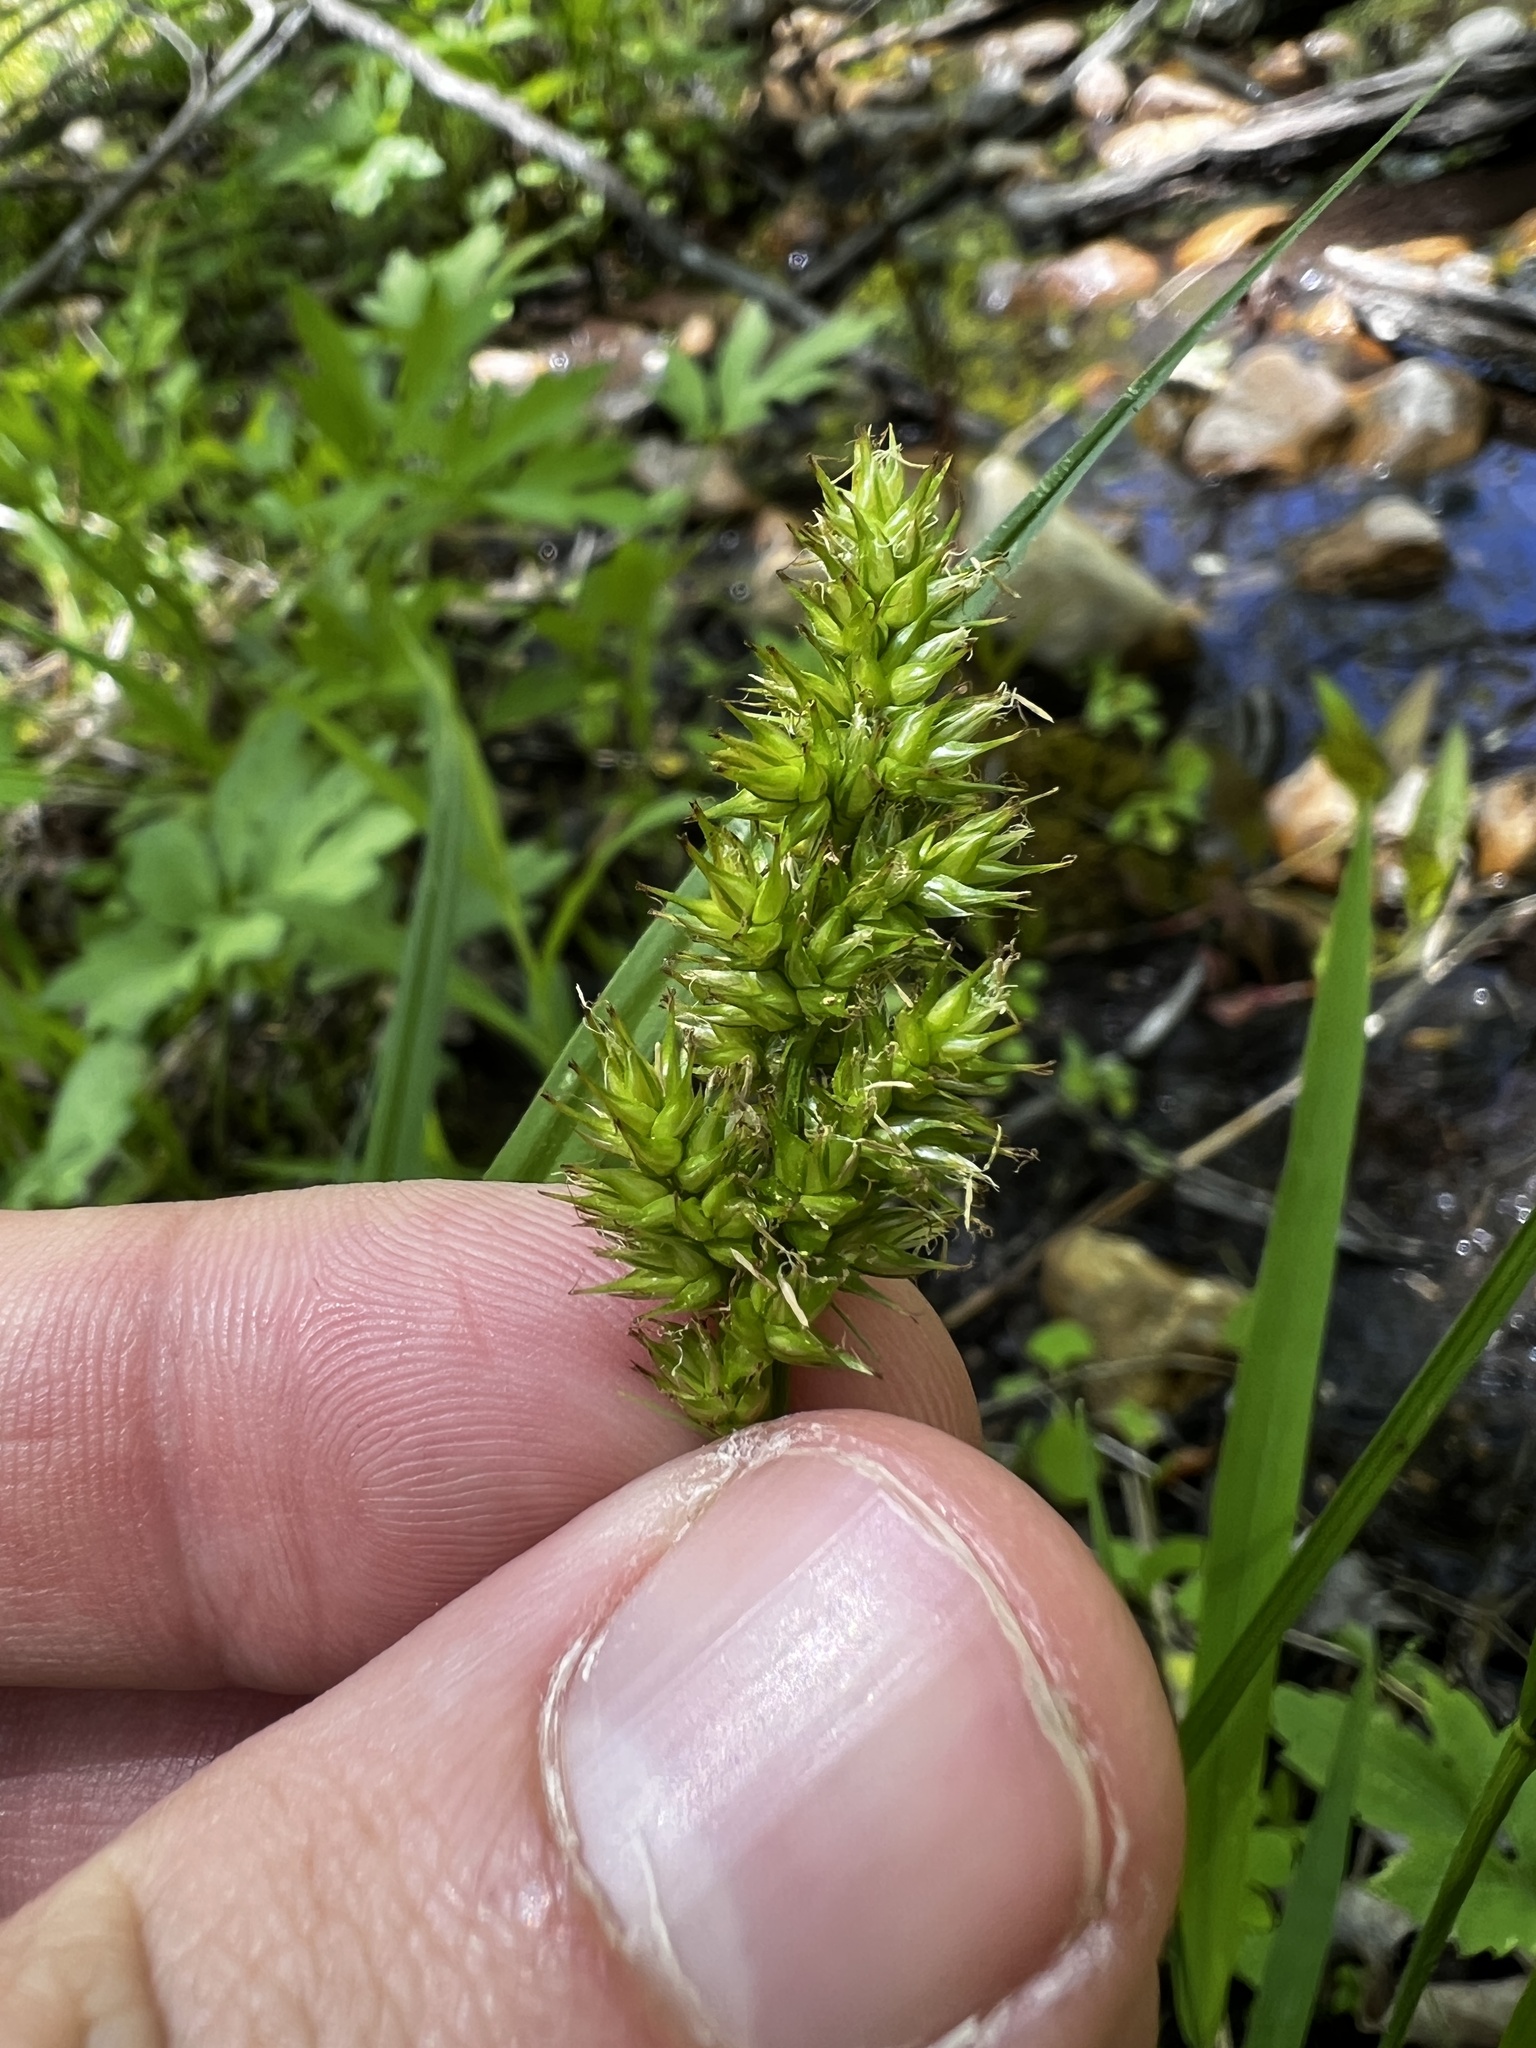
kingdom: Plantae
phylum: Tracheophyta
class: Liliopsida
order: Poales
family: Cyperaceae
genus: Carex
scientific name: Carex stipata
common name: Awl-fruited sedge
